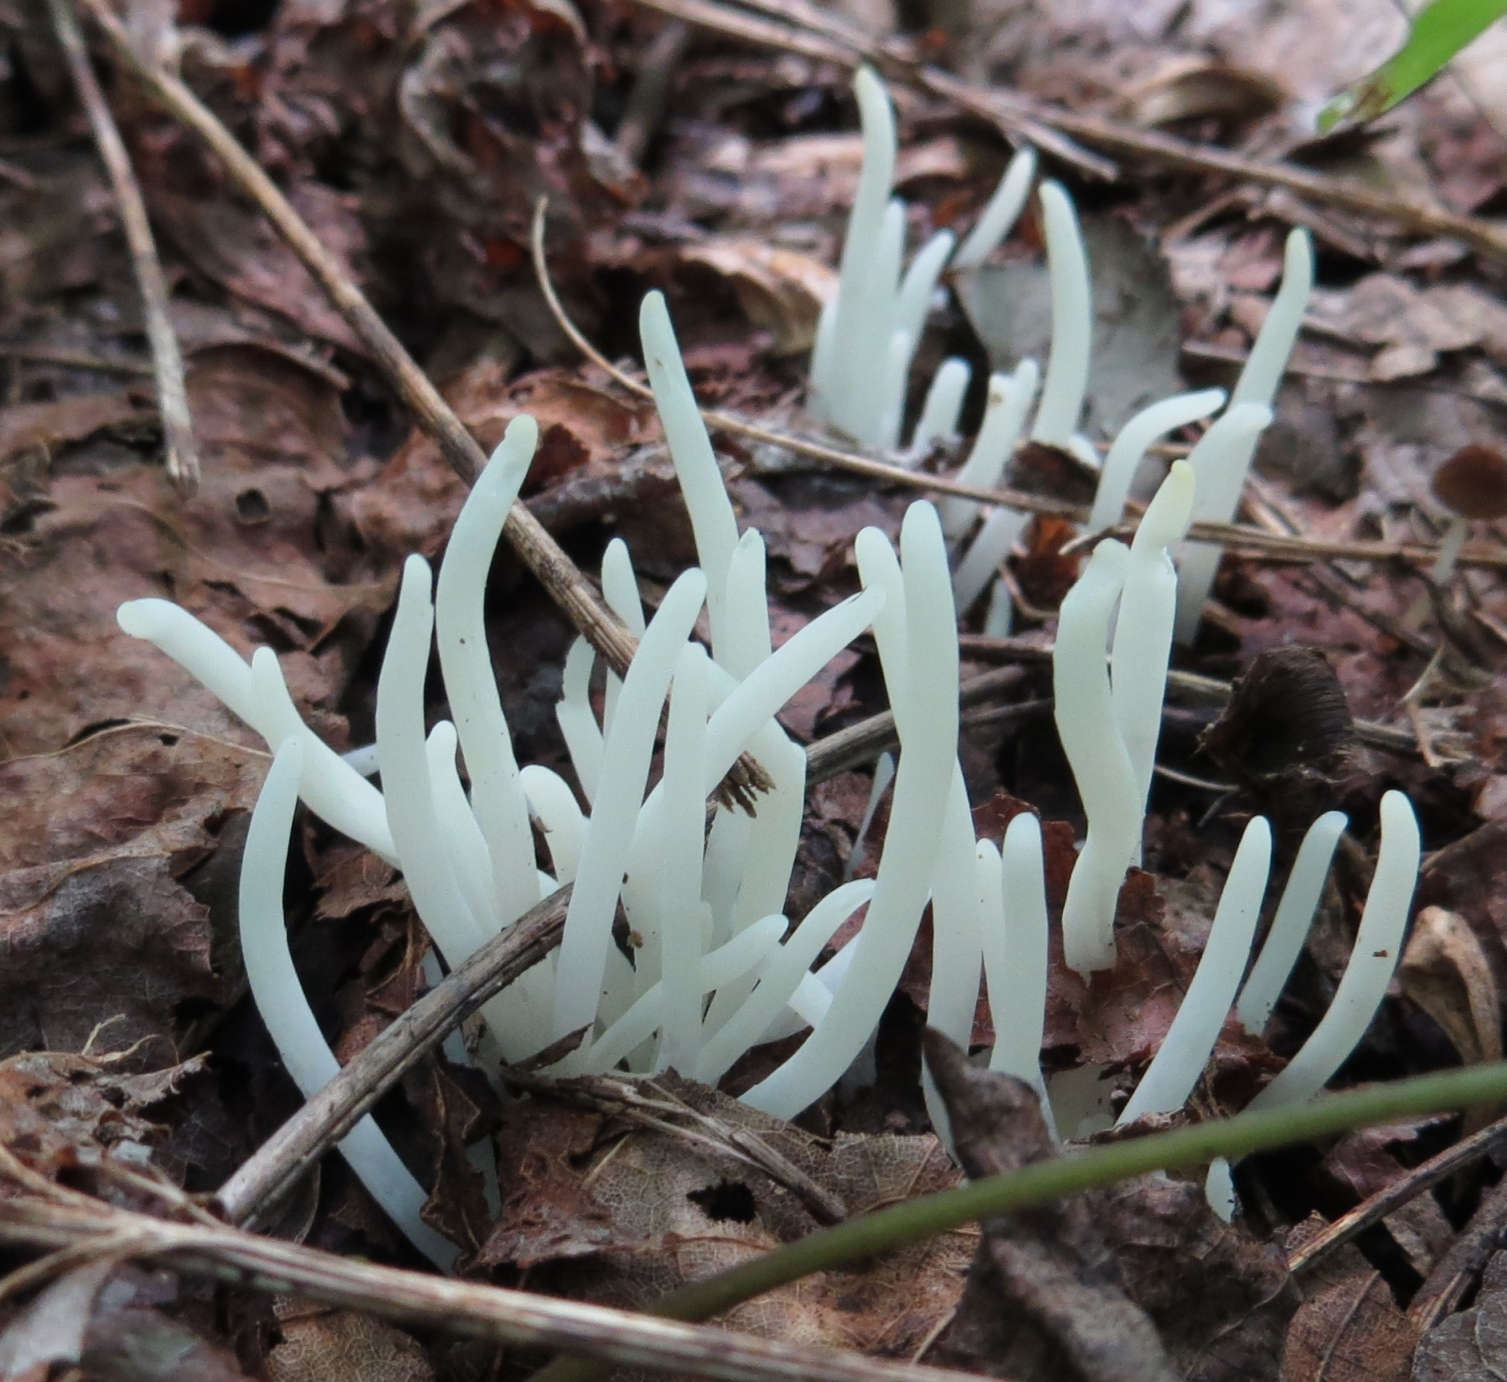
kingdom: Fungi
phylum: Basidiomycota
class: Agaricomycetes
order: Agaricales
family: Clavariaceae
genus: Clavaria
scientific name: Clavaria fragilis
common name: White spindles
